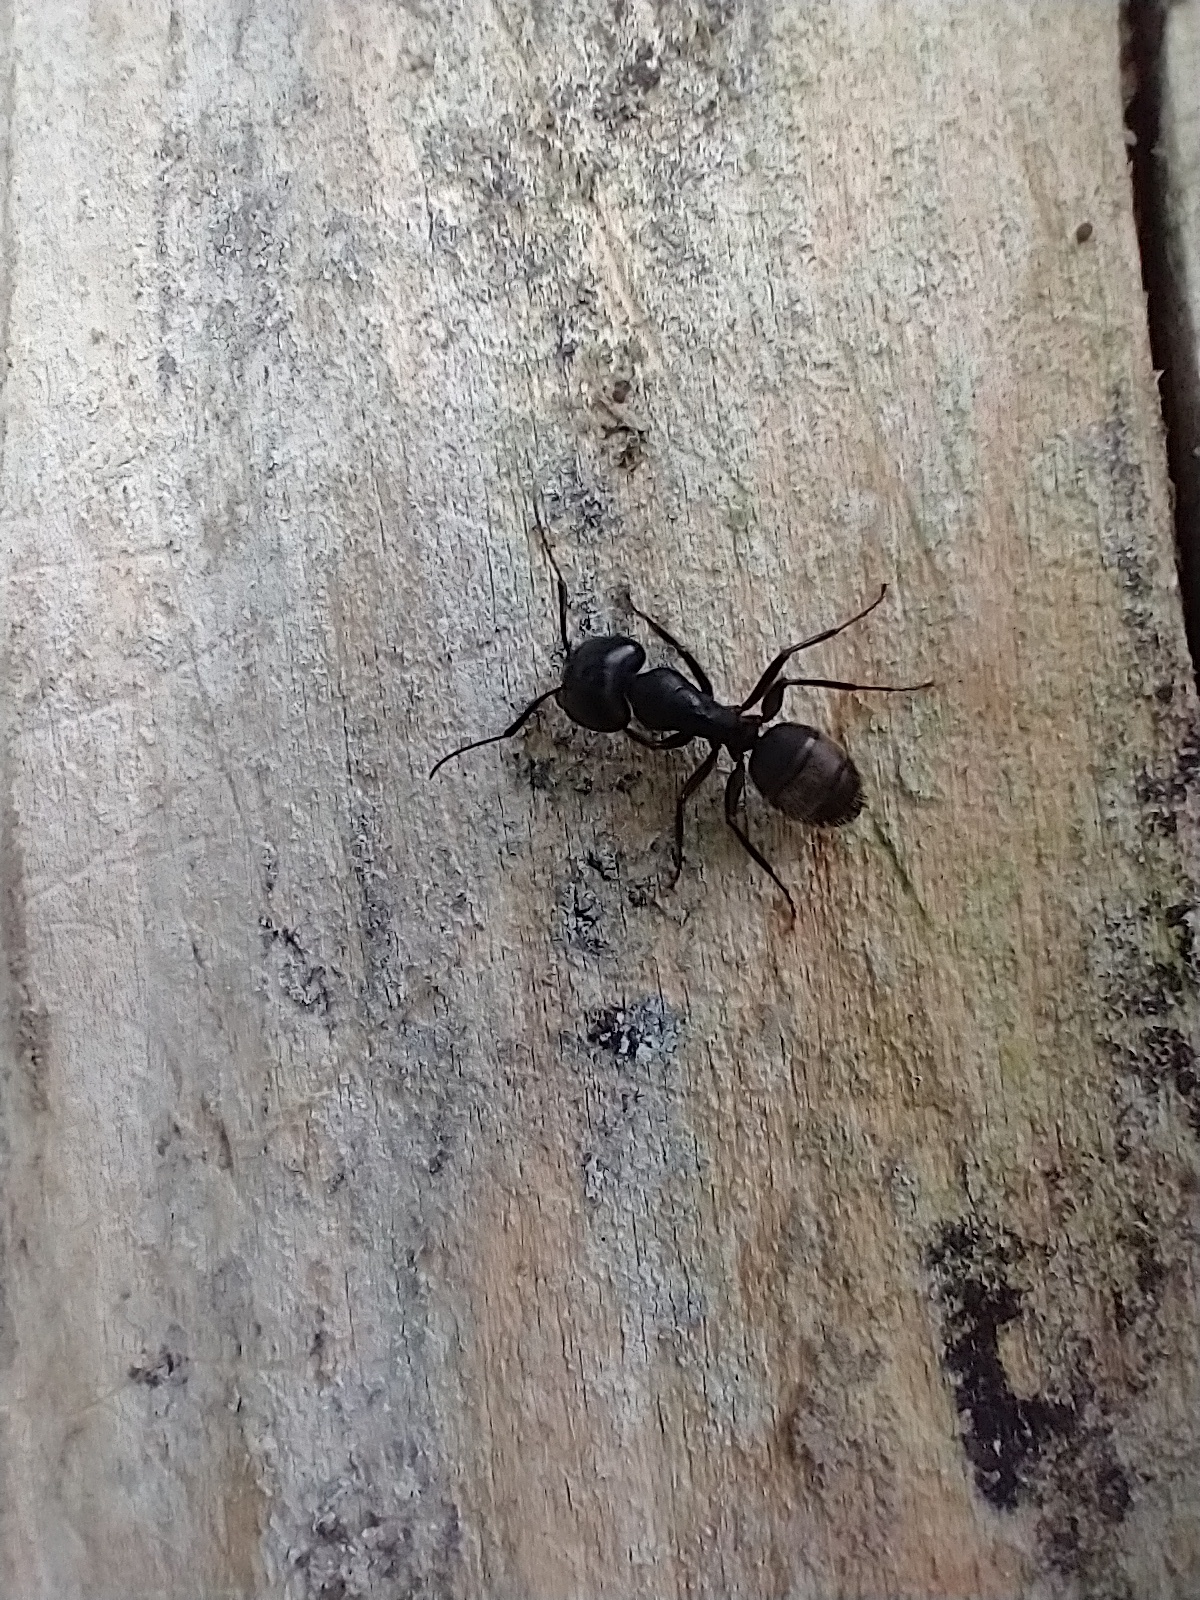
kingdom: Animalia
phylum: Arthropoda
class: Insecta
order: Hymenoptera
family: Formicidae
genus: Camponotus
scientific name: Camponotus pennsylvanicus
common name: Black carpenter ant
